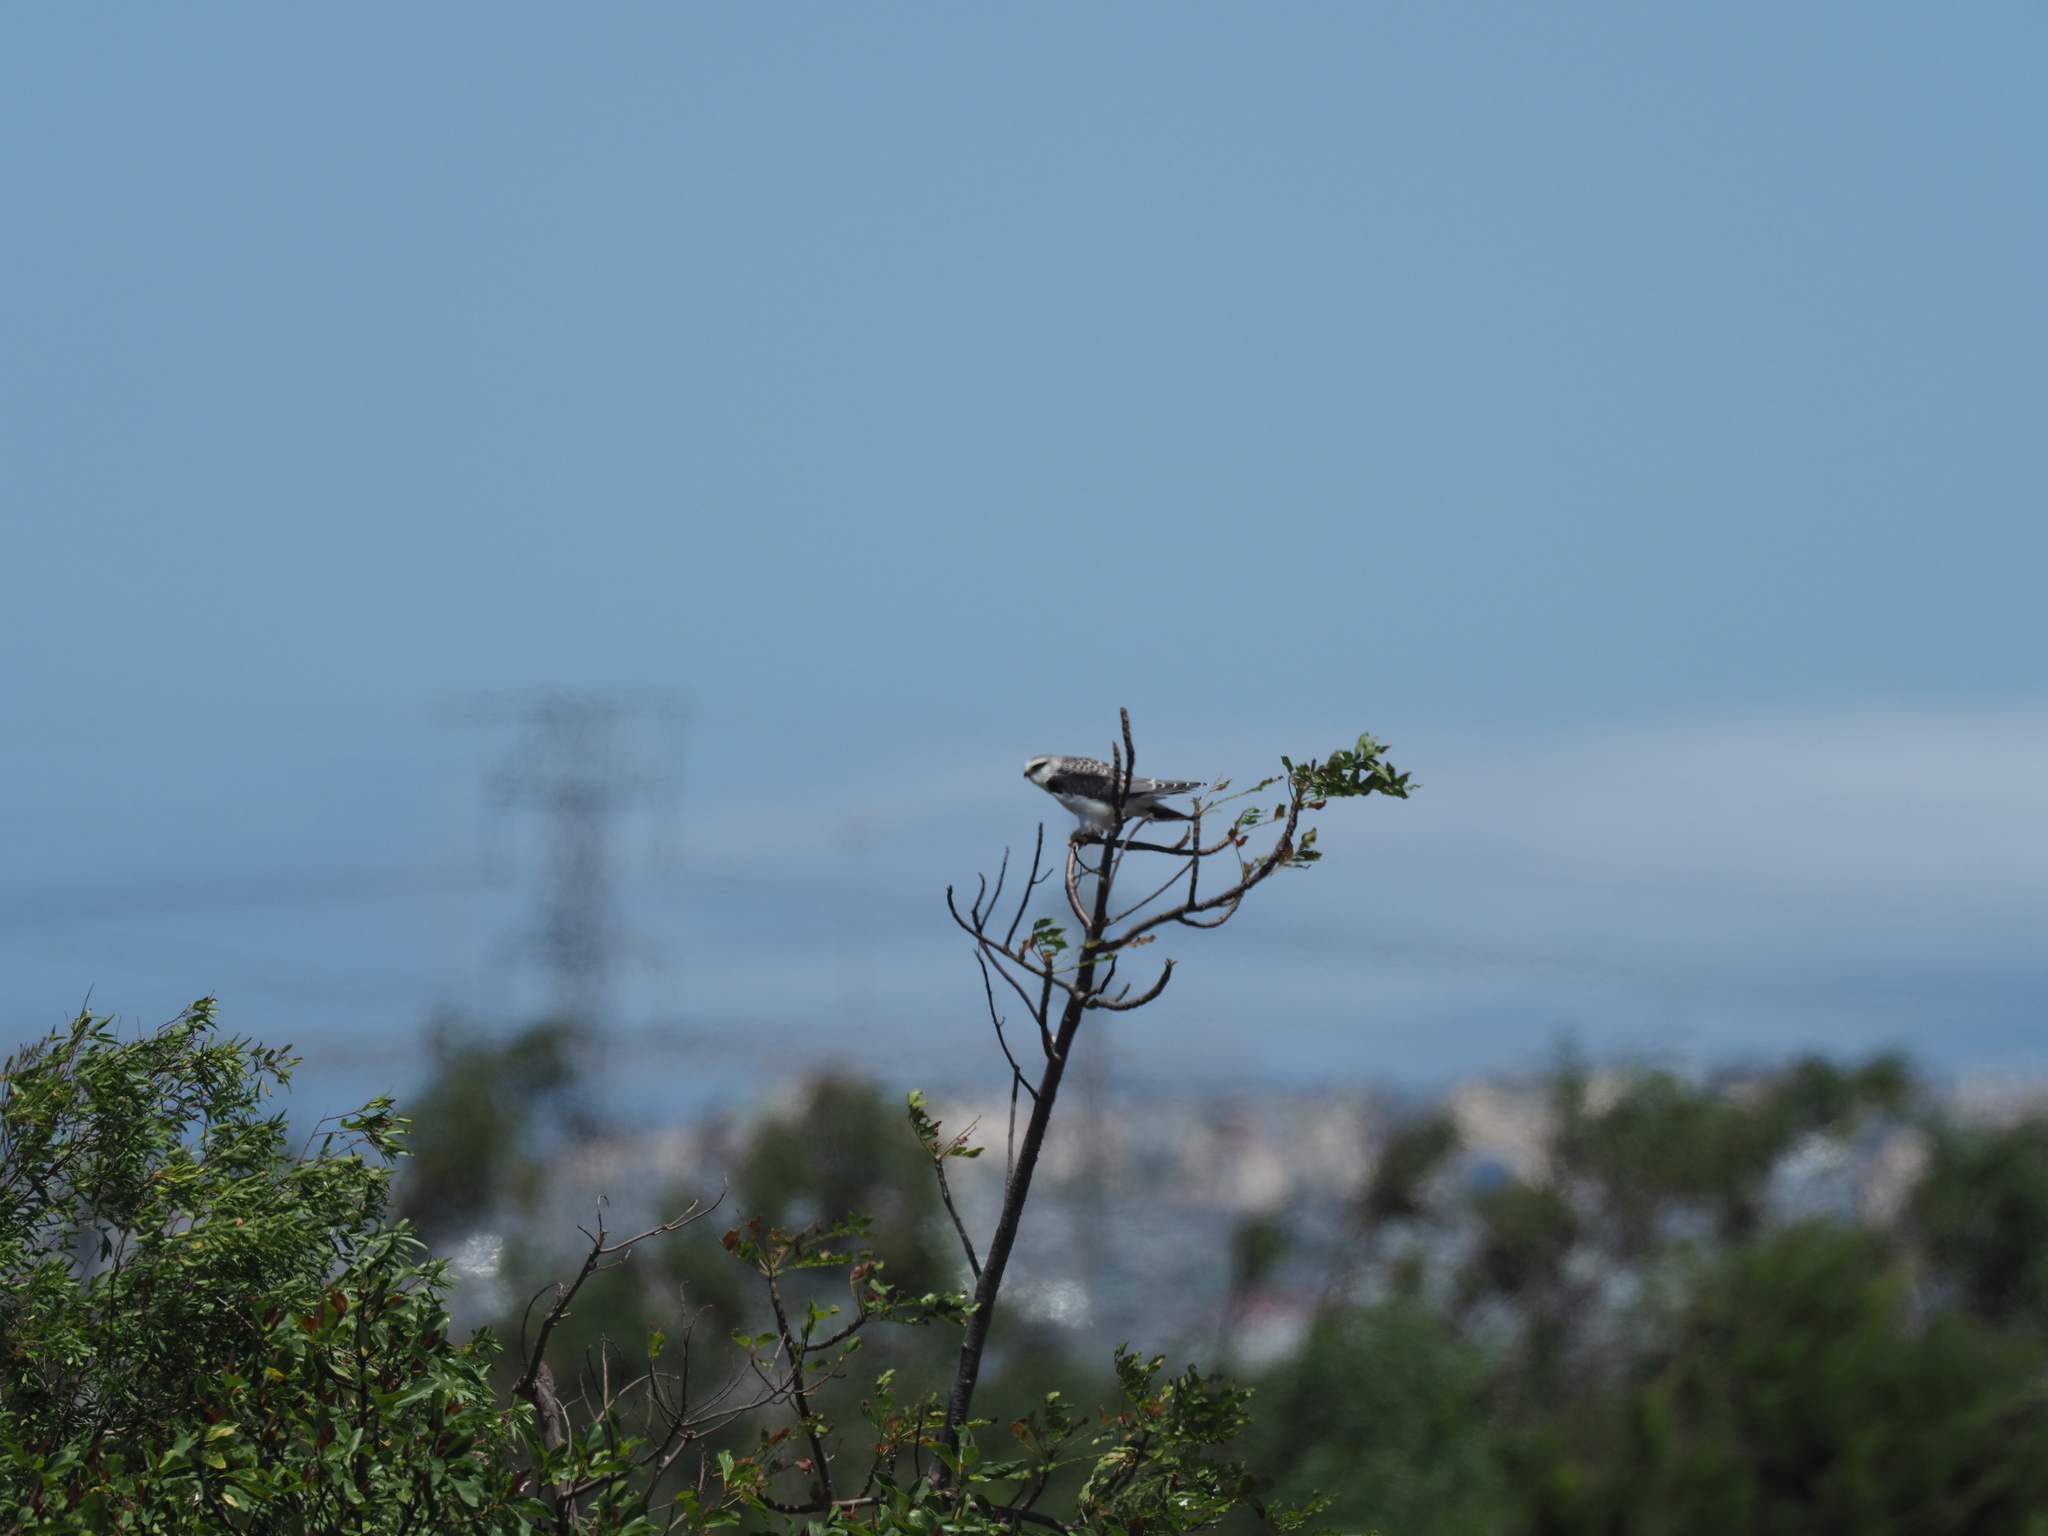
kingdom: Animalia
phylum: Chordata
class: Aves
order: Accipitriformes
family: Accipitridae
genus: Elanus
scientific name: Elanus caeruleus
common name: Black-winged kite
